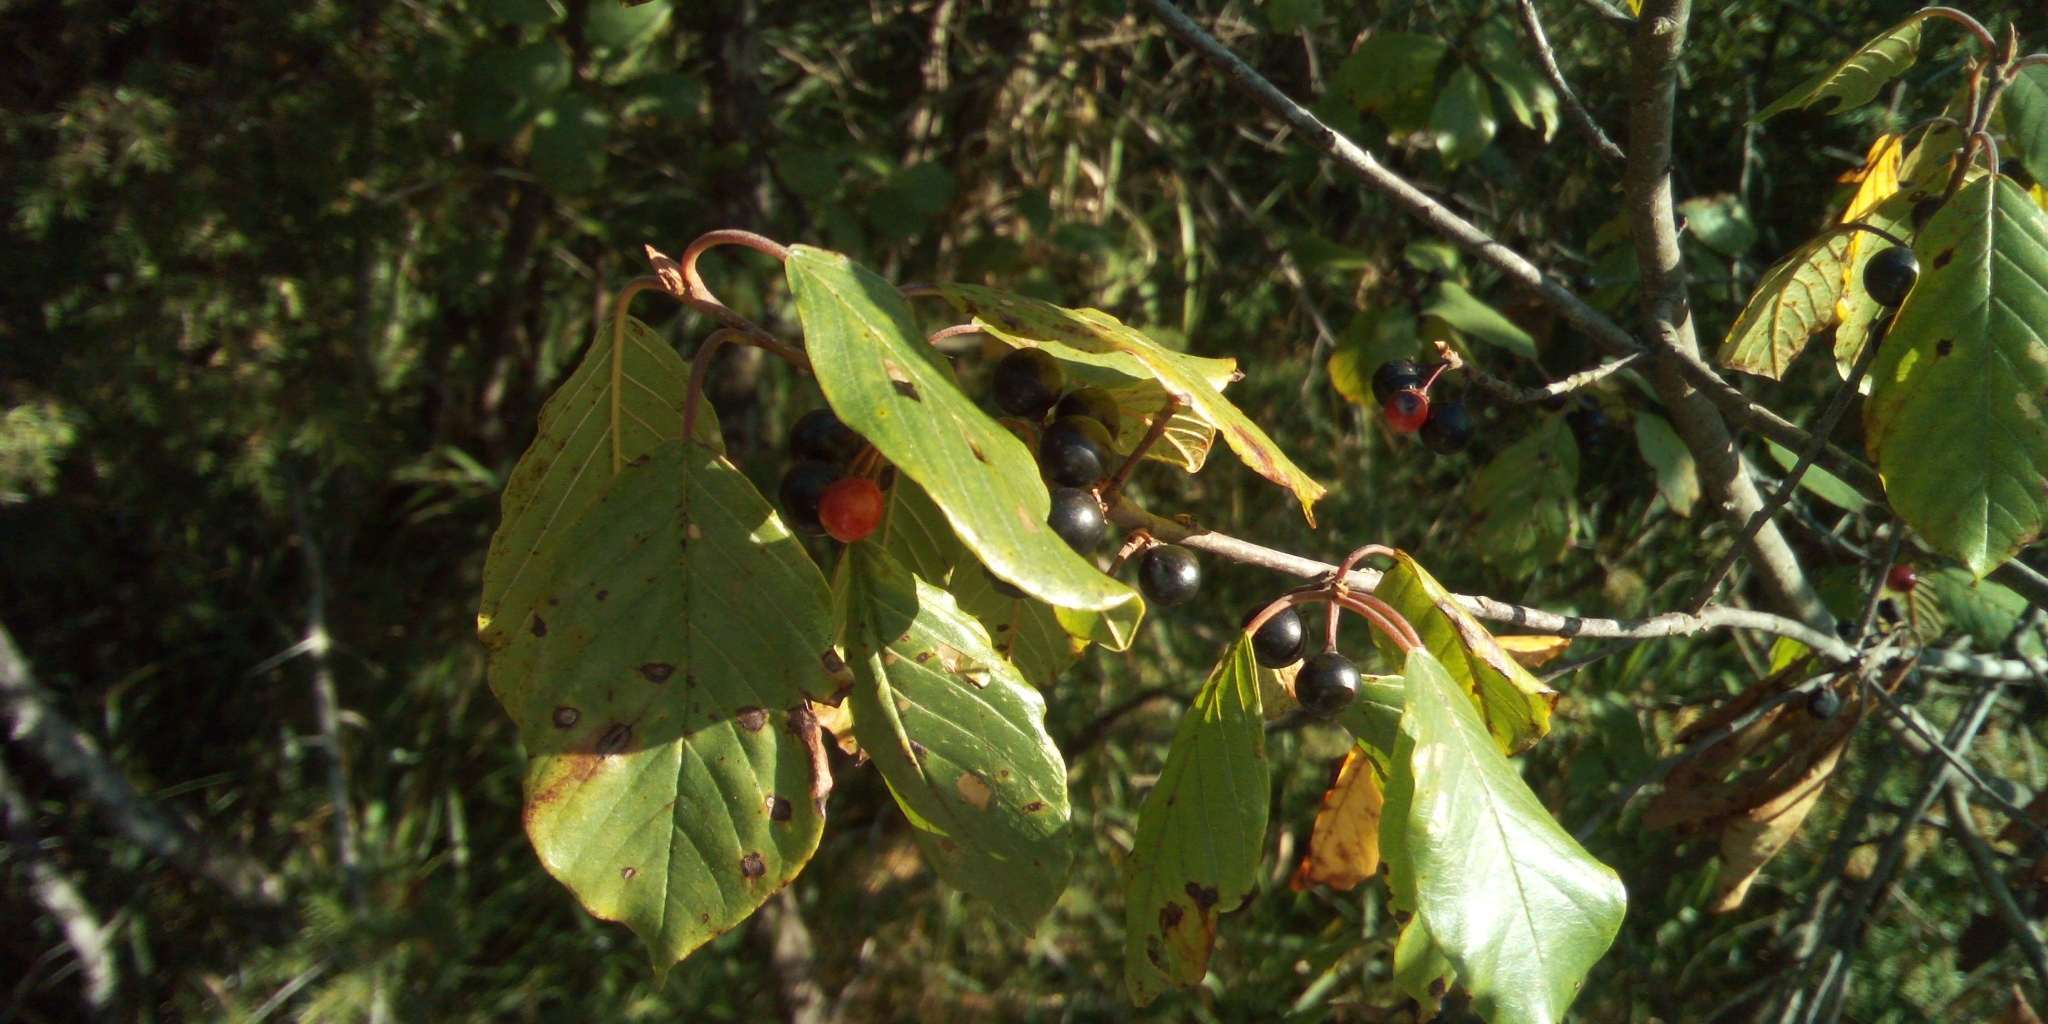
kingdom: Plantae
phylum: Tracheophyta
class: Magnoliopsida
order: Rosales
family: Rhamnaceae
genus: Frangula
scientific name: Frangula alnus
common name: Alder buckthorn
